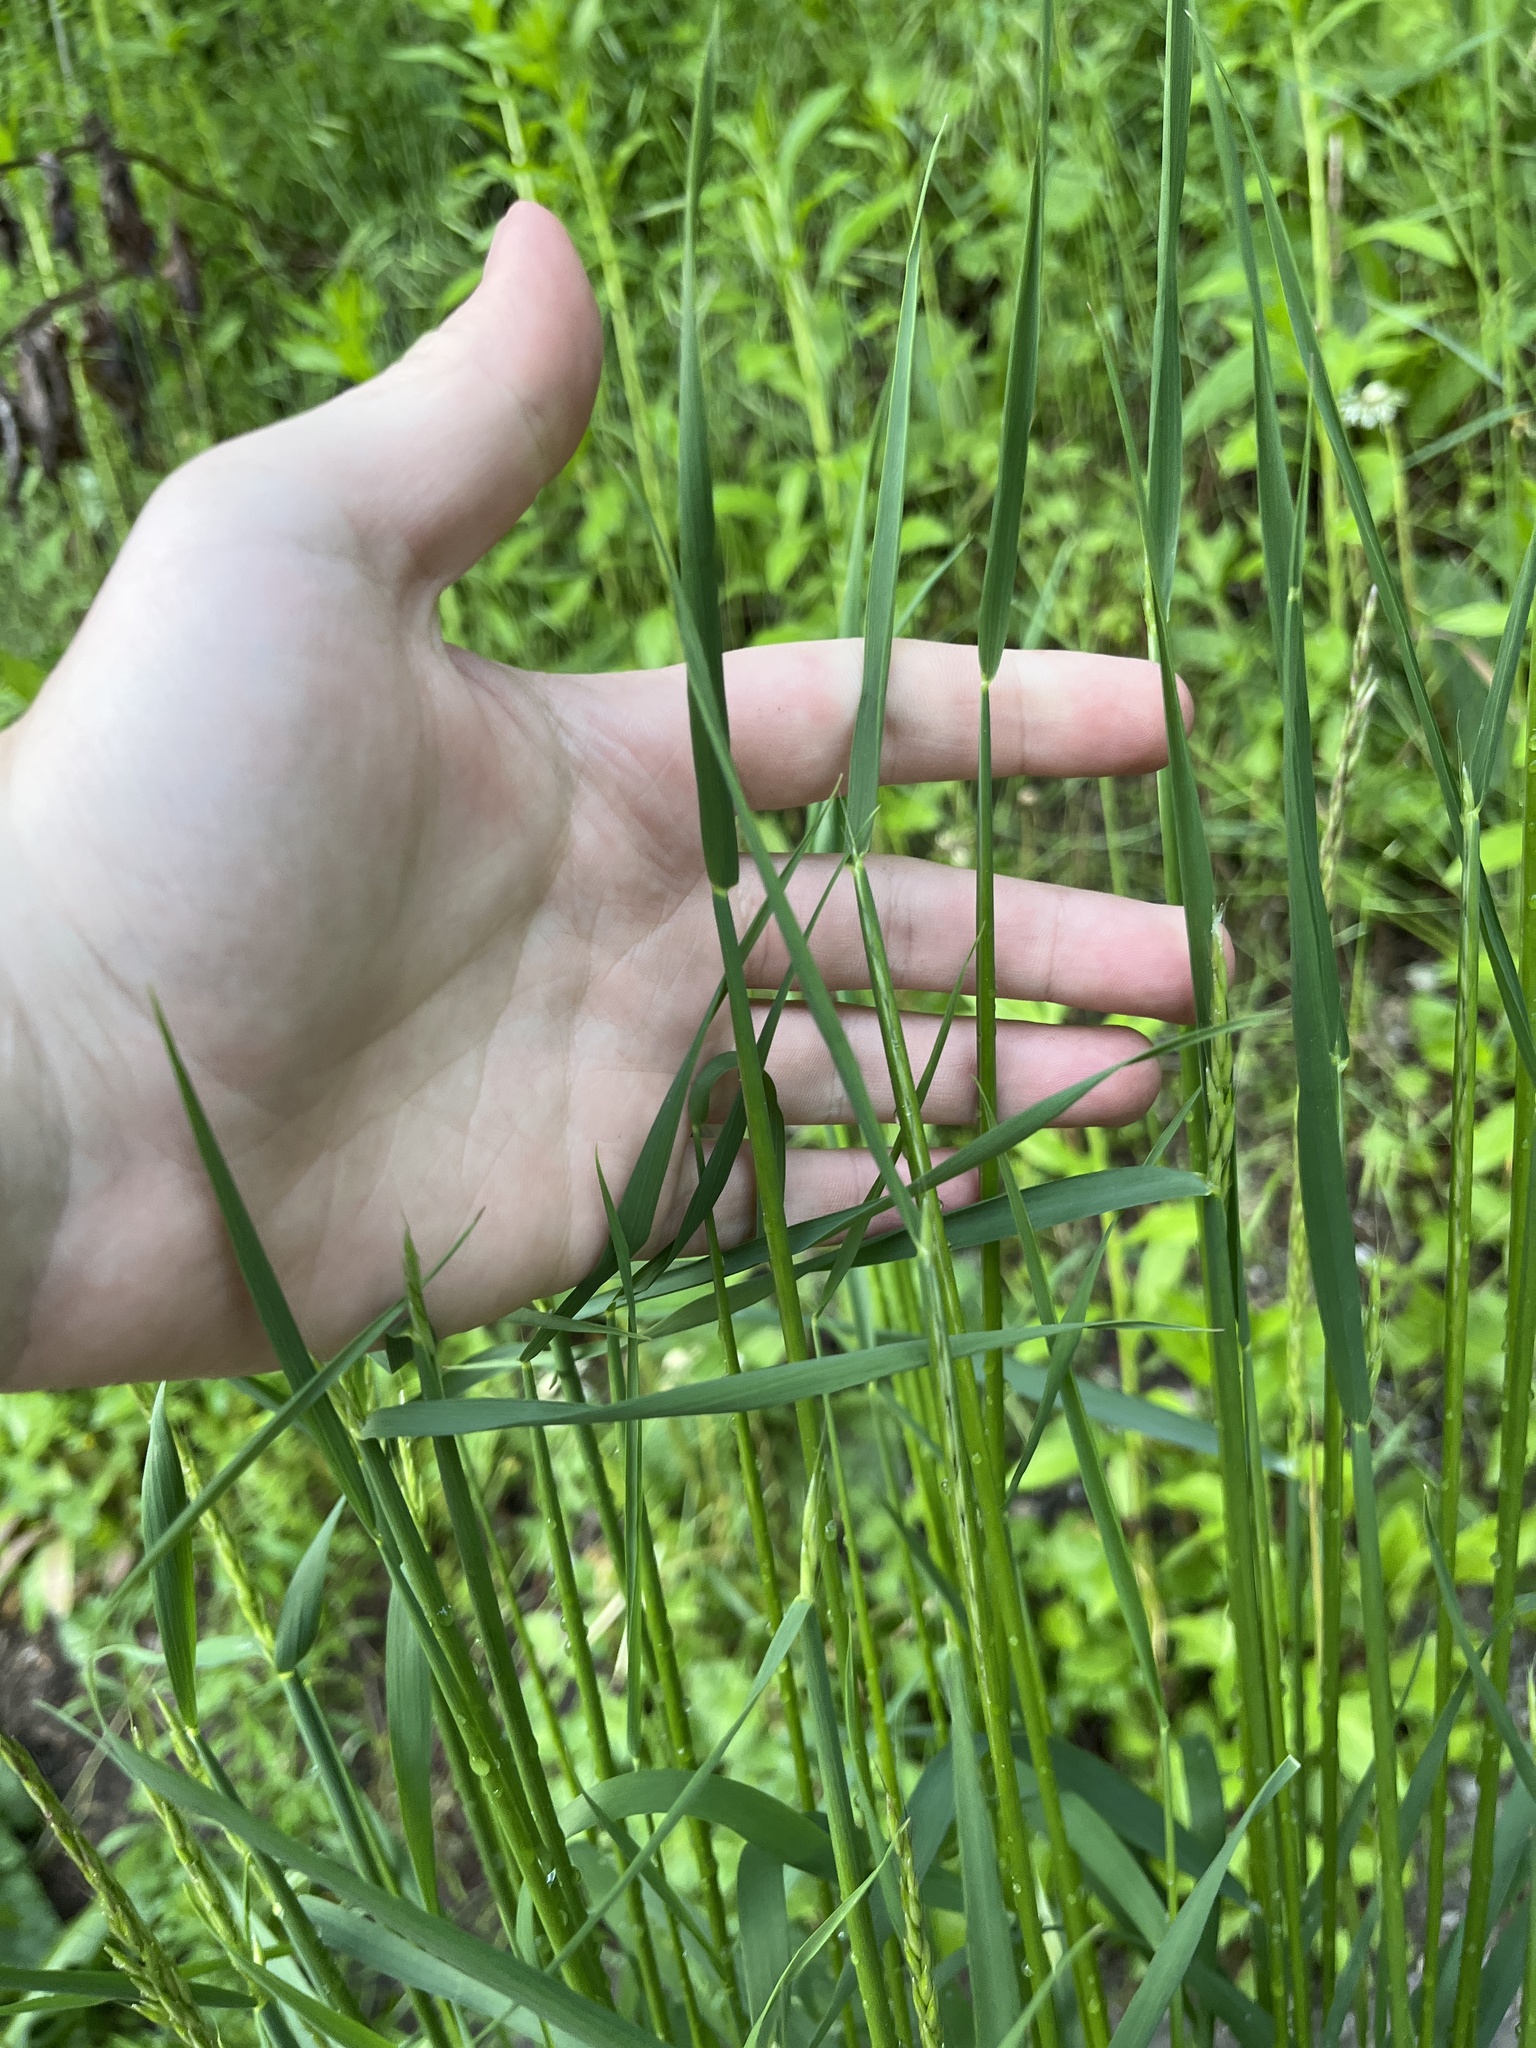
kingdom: Plantae
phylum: Tracheophyta
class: Liliopsida
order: Poales
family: Poaceae
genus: Arrhenatherum
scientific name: Arrhenatherum elatius
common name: Tall oatgrass
